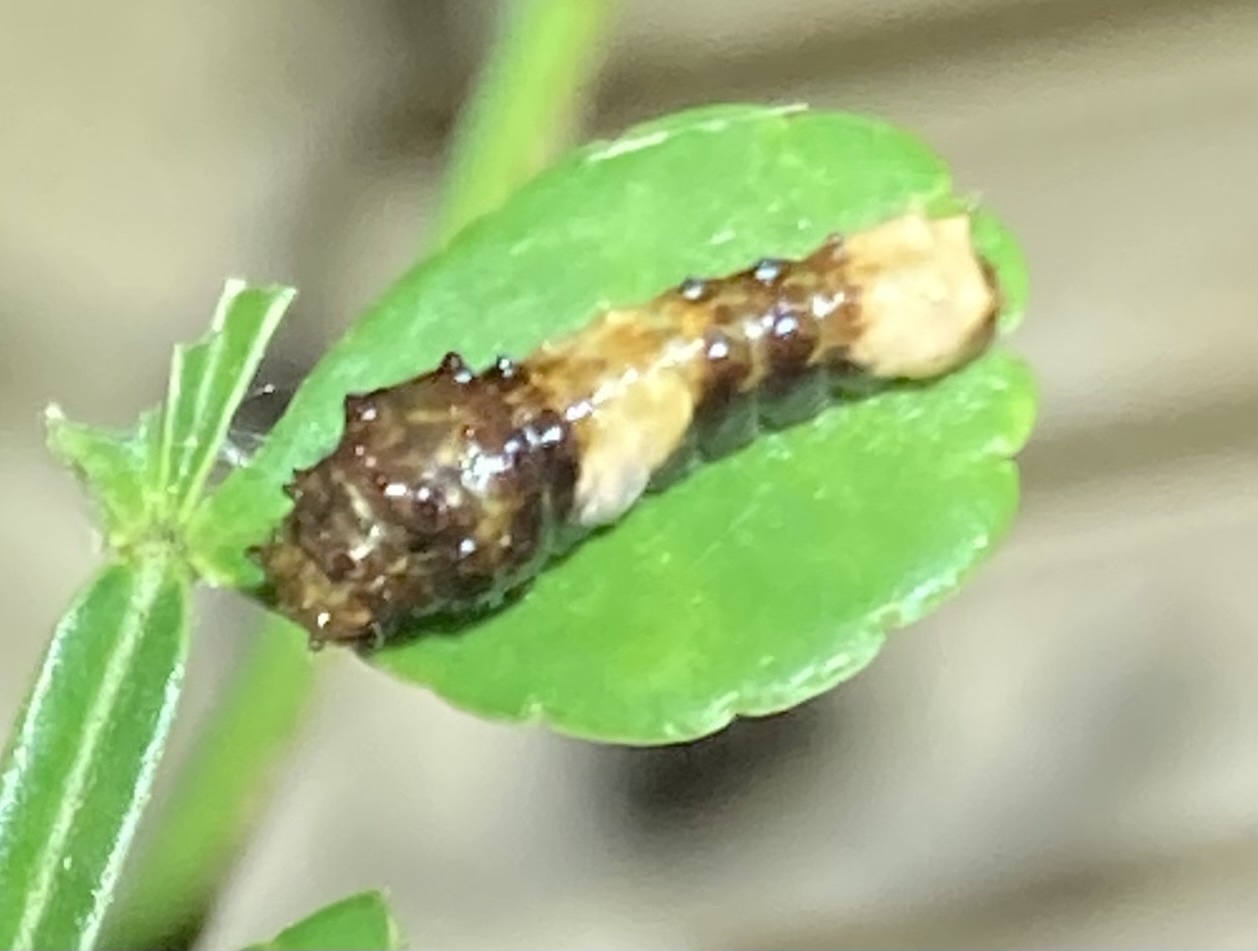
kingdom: Animalia
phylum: Arthropoda
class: Insecta
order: Lepidoptera
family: Papilionidae
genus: Papilio
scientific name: Papilio cresphontes
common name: Giant swallowtail
